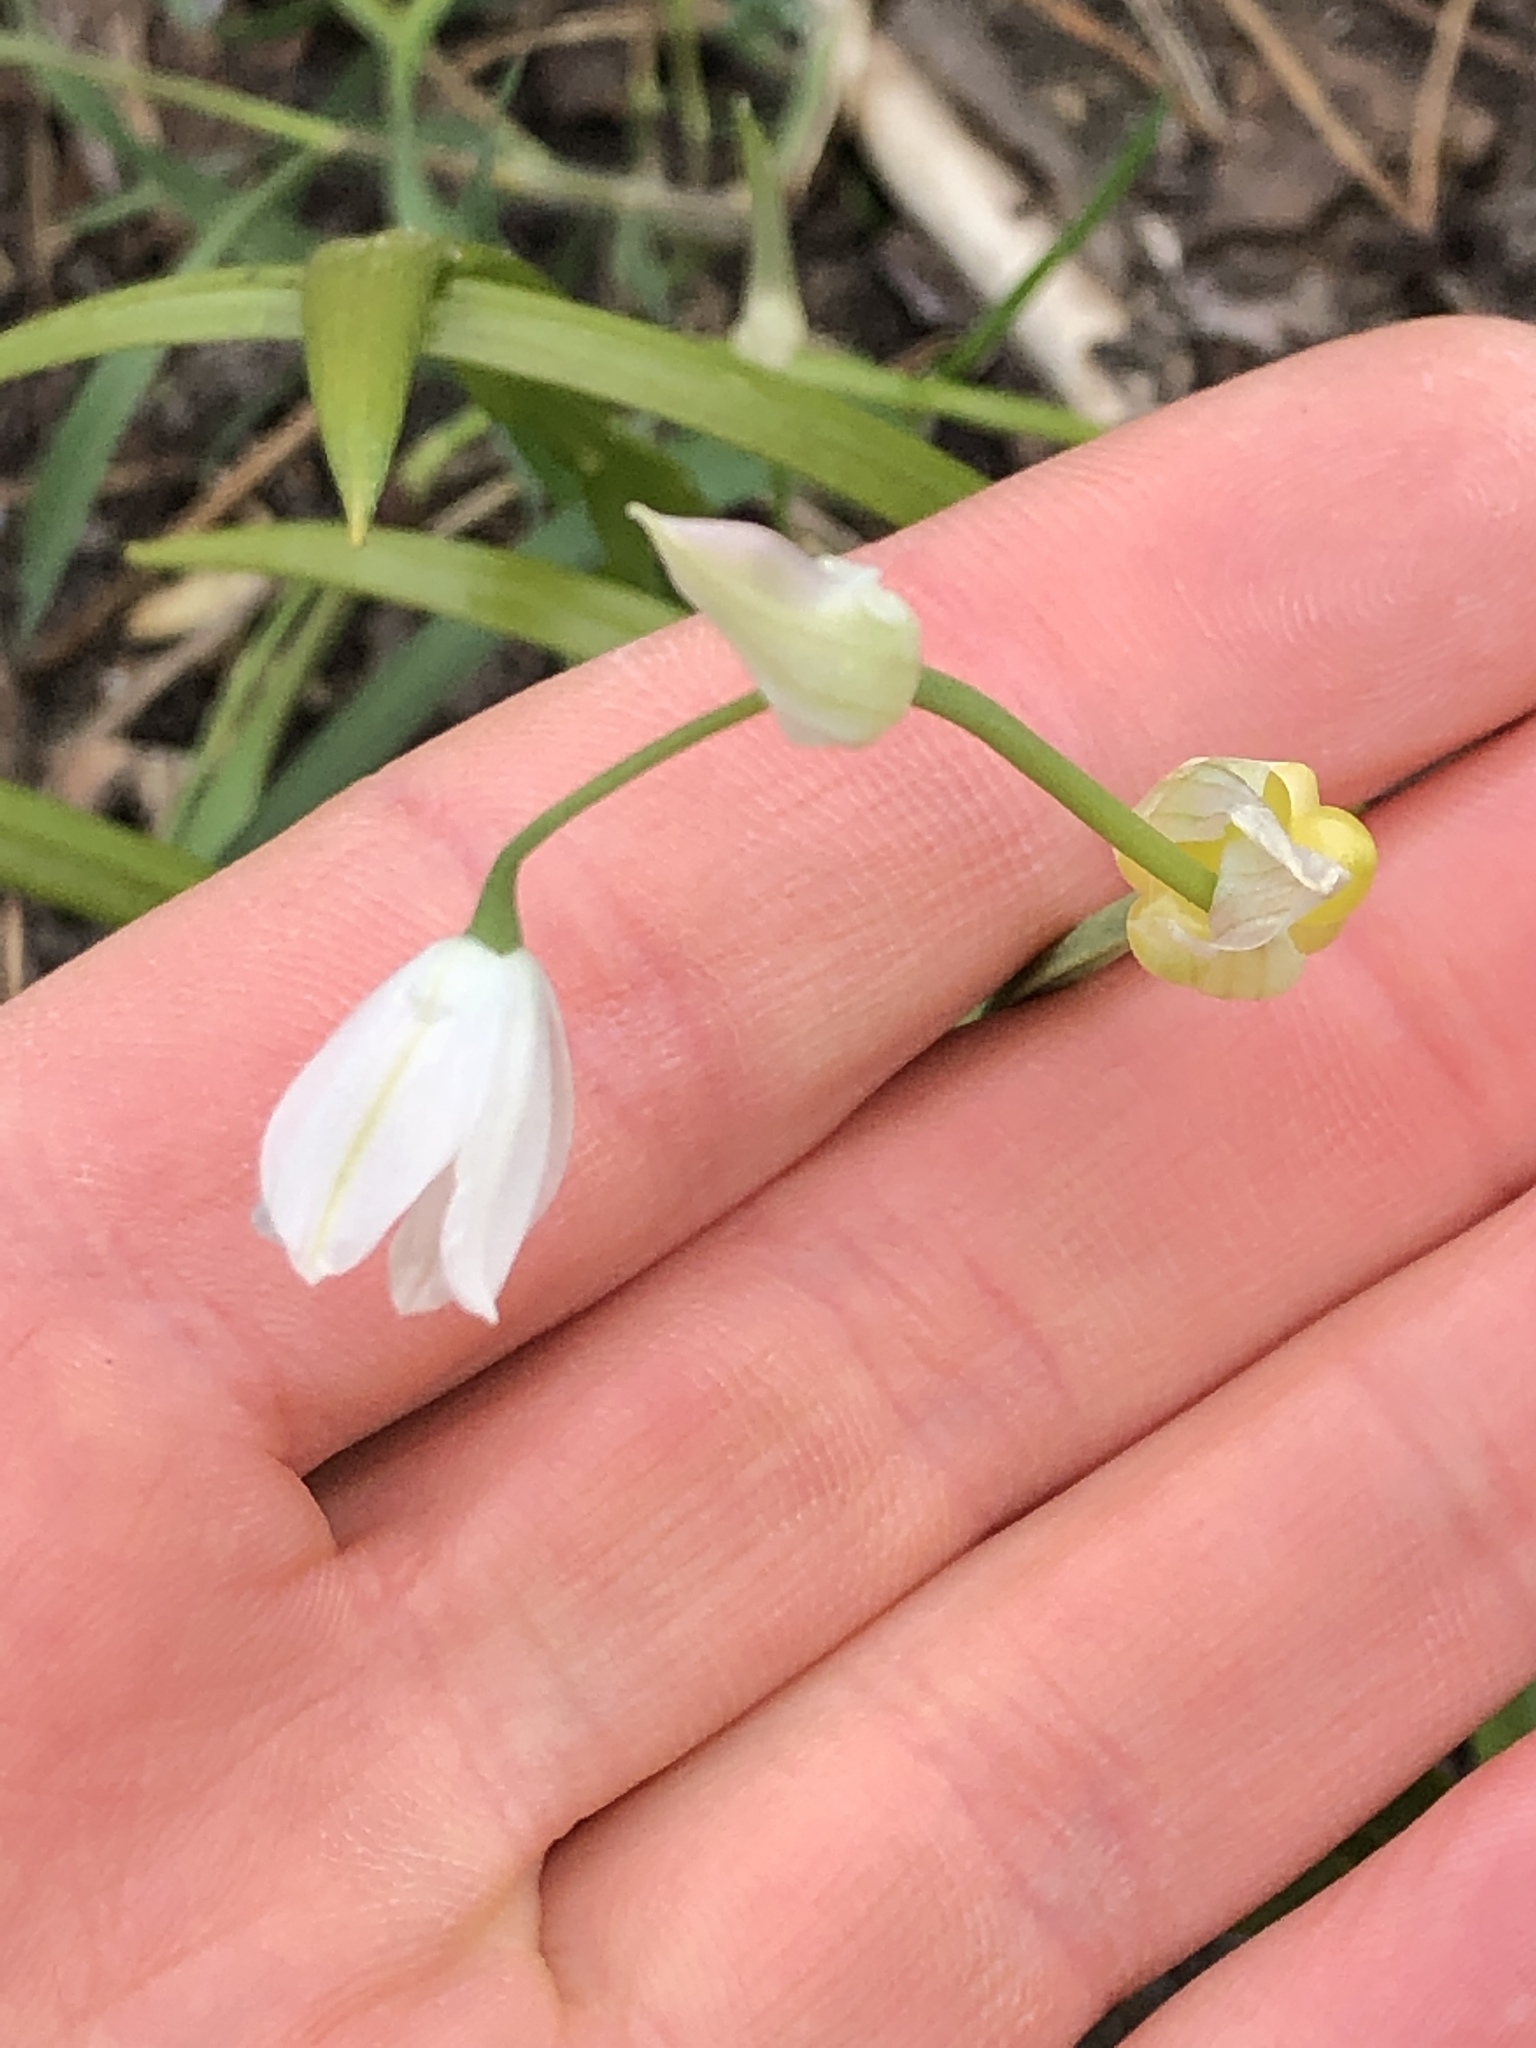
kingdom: Plantae
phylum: Tracheophyta
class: Liliopsida
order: Asparagales
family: Amaryllidaceae
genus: Allium
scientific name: Allium paradoxum
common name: Few-flowered garlic
